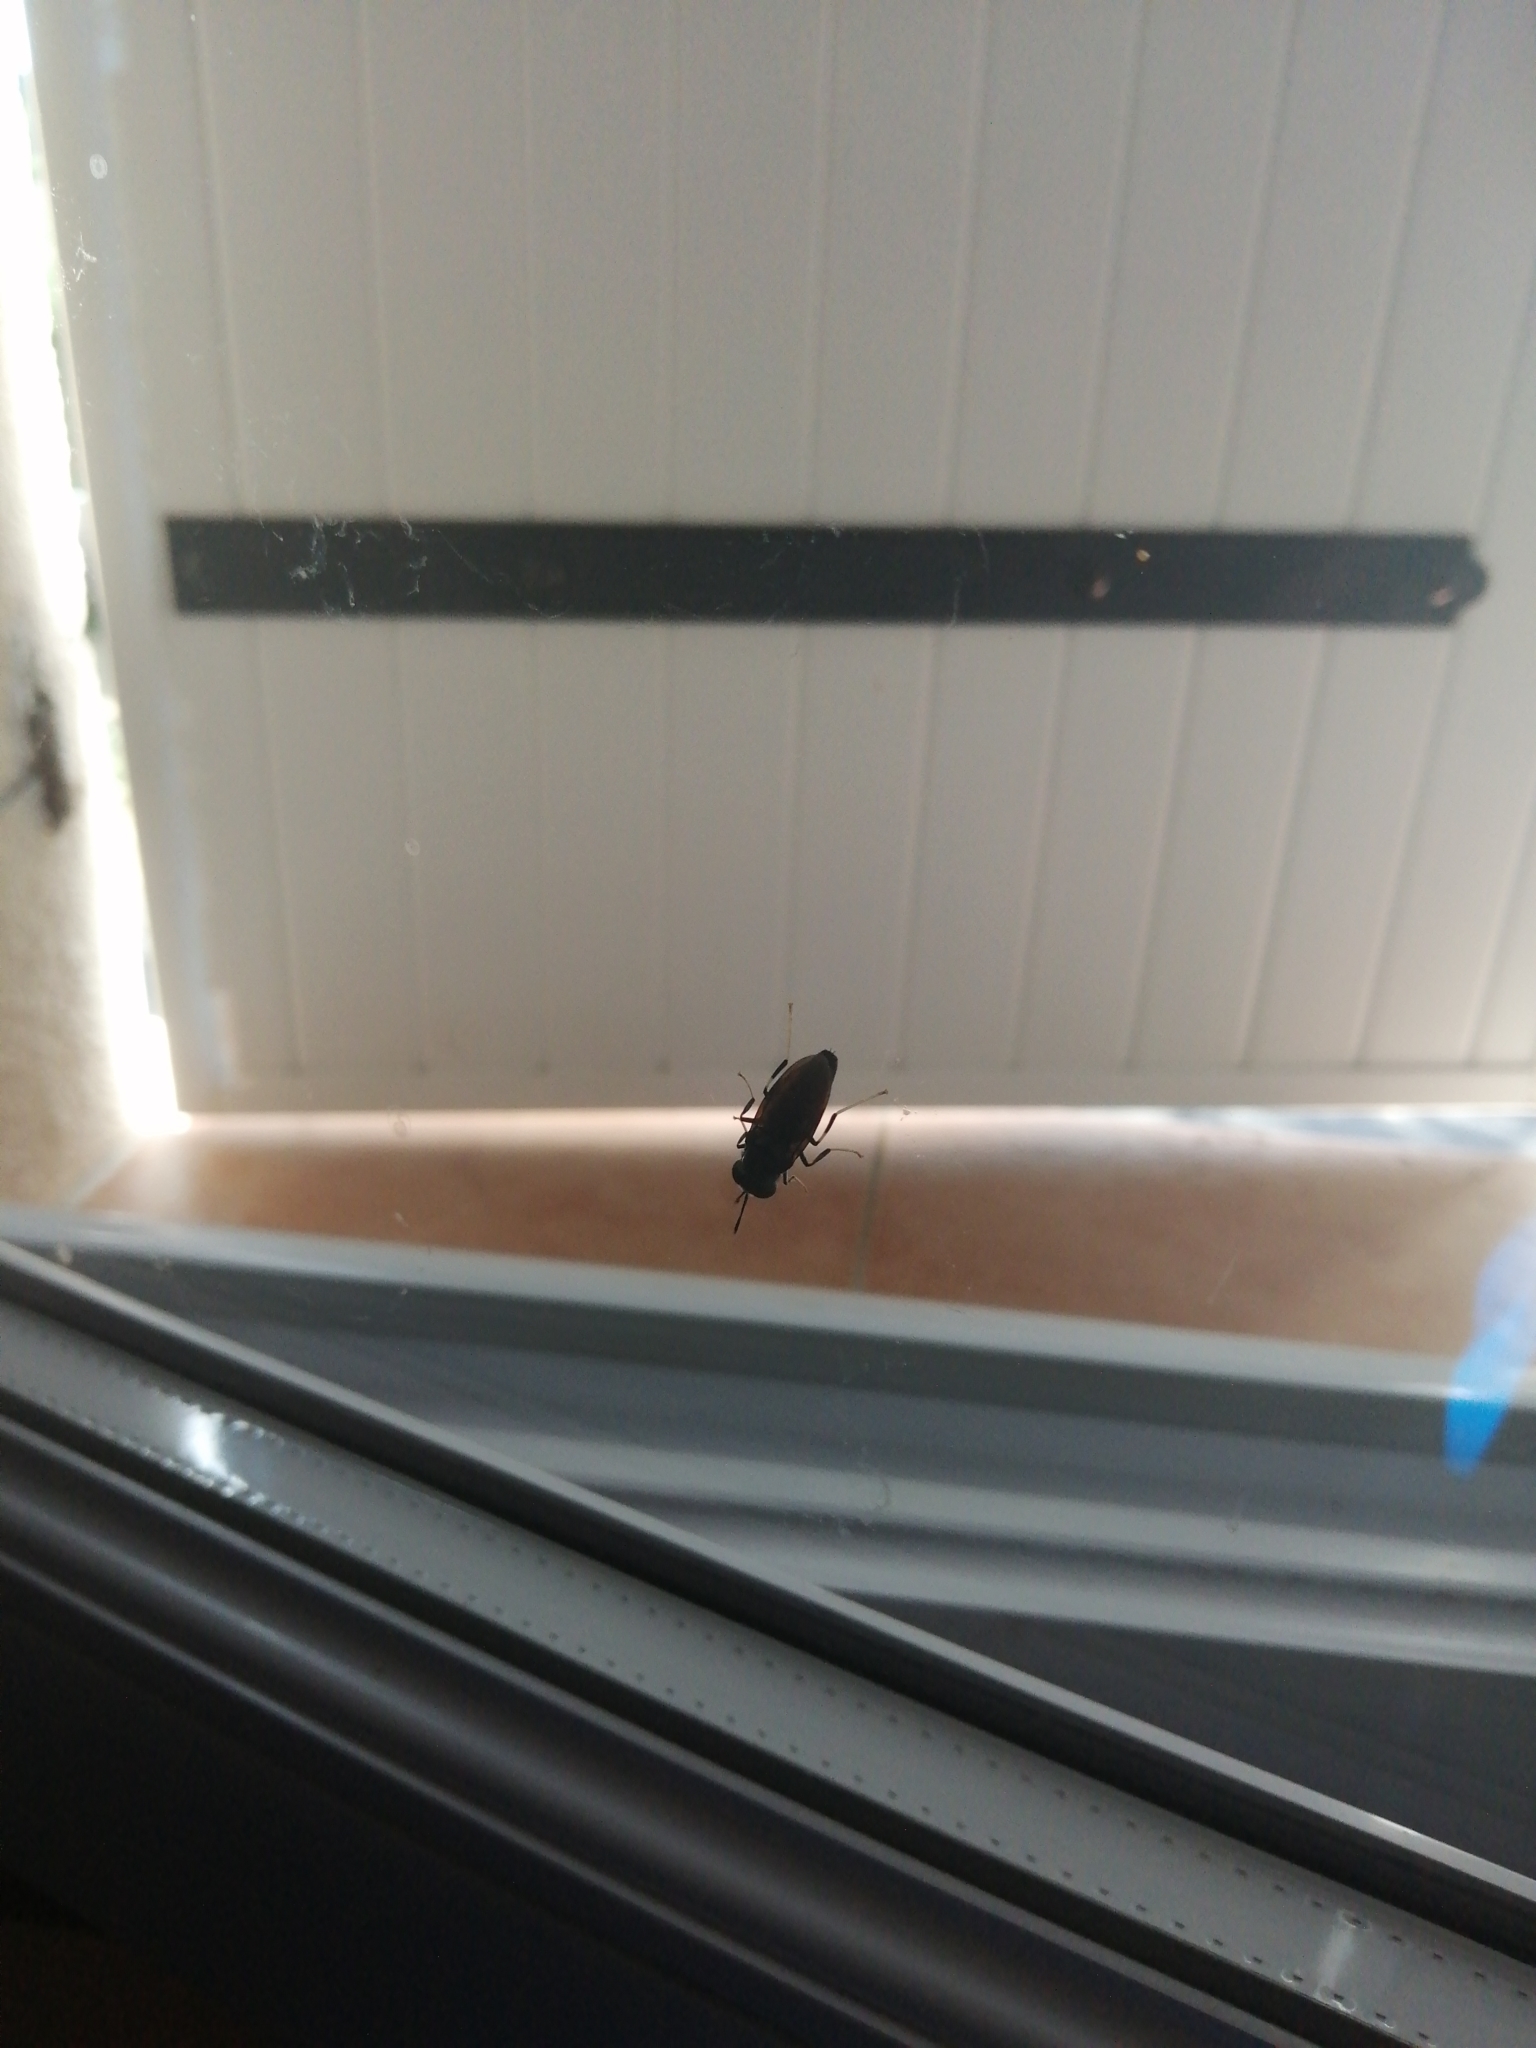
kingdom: Animalia
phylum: Arthropoda
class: Insecta
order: Diptera
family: Stratiomyidae
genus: Hermetia
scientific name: Hermetia illucens
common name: Black soldier fly
